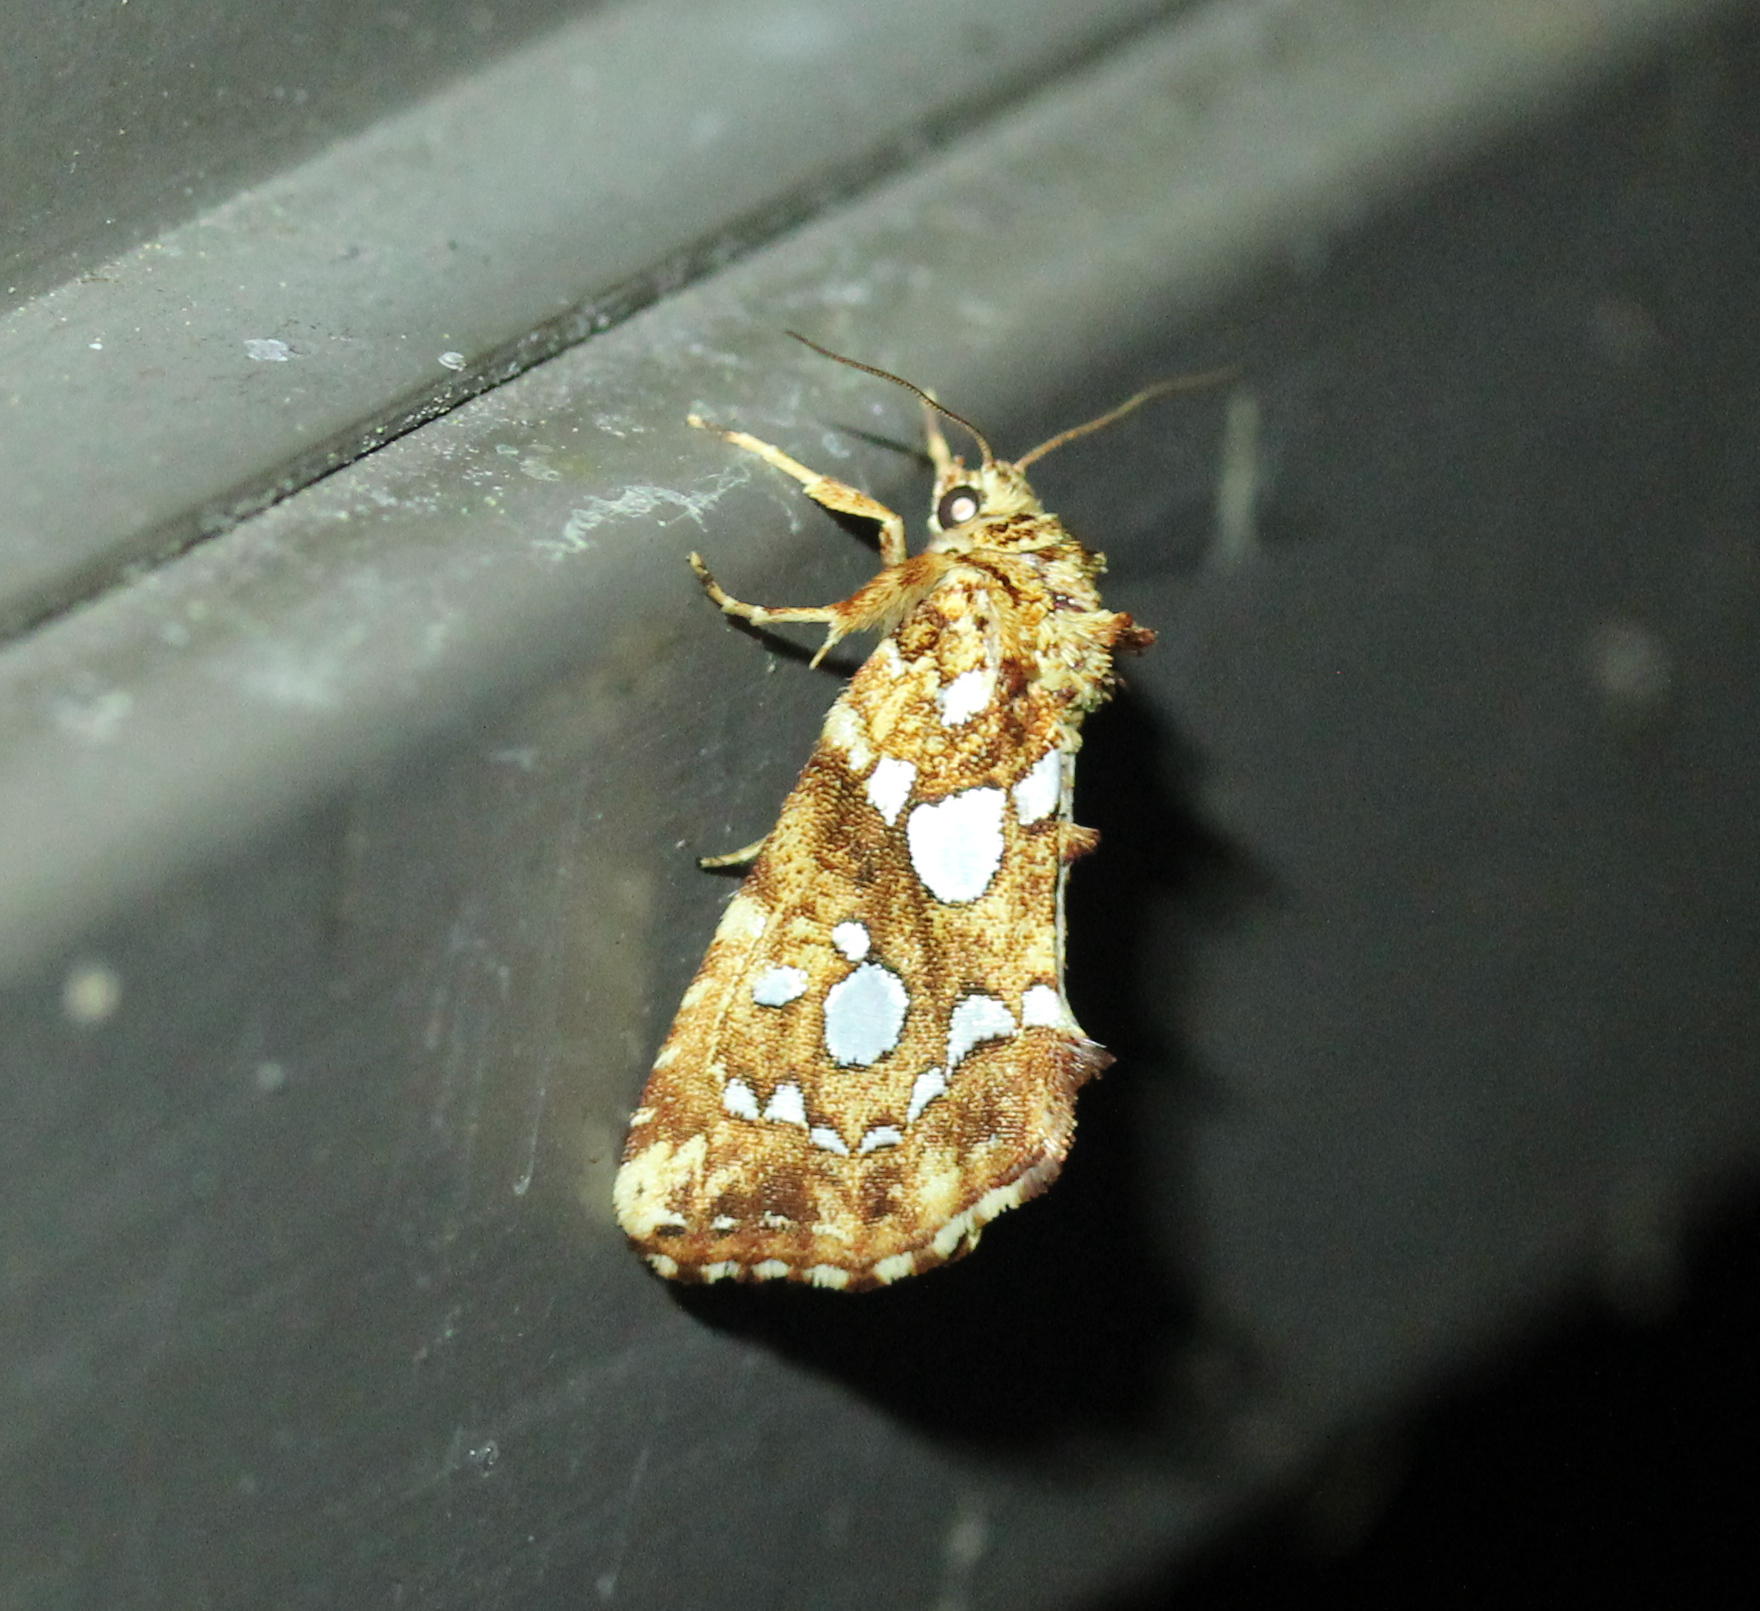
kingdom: Animalia
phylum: Arthropoda
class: Insecta
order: Lepidoptera
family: Noctuidae
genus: Callopistria
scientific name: Callopistria cordata
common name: Silver-spotted fern moth
